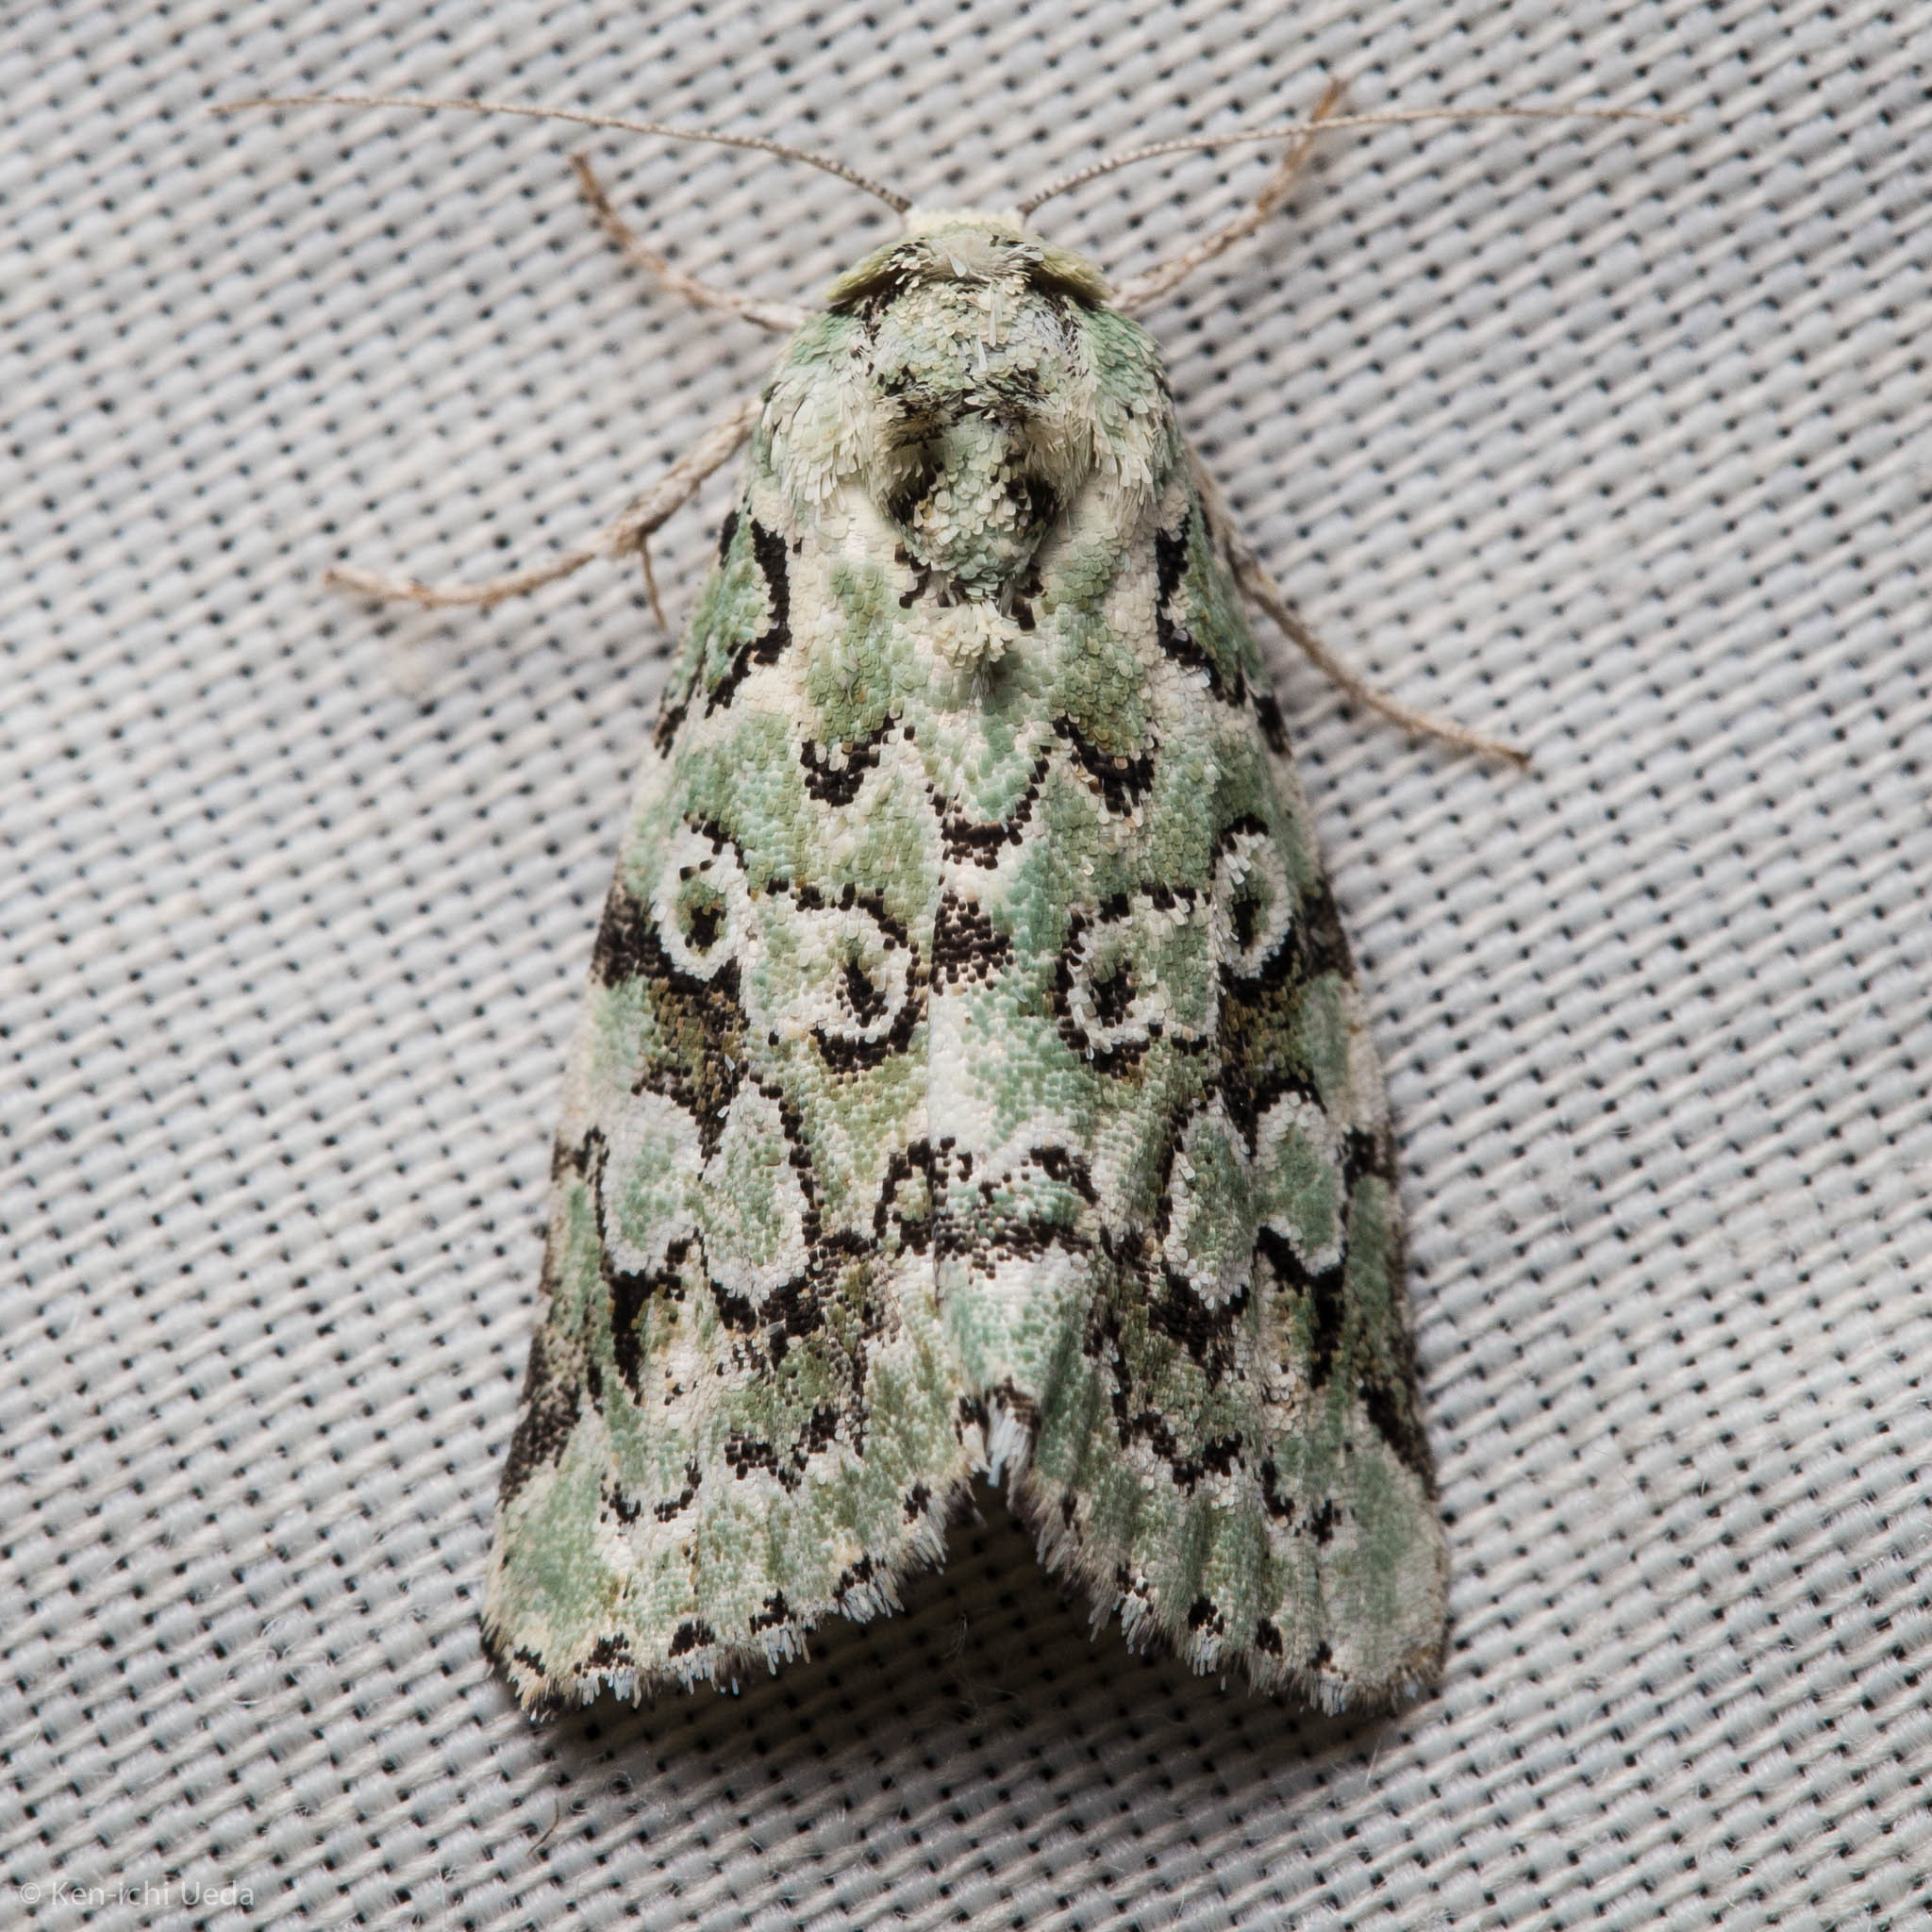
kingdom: Animalia
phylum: Arthropoda
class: Insecta
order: Lepidoptera
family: Noctuidae
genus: Bryolymnia
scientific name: Bryolymnia viridata
